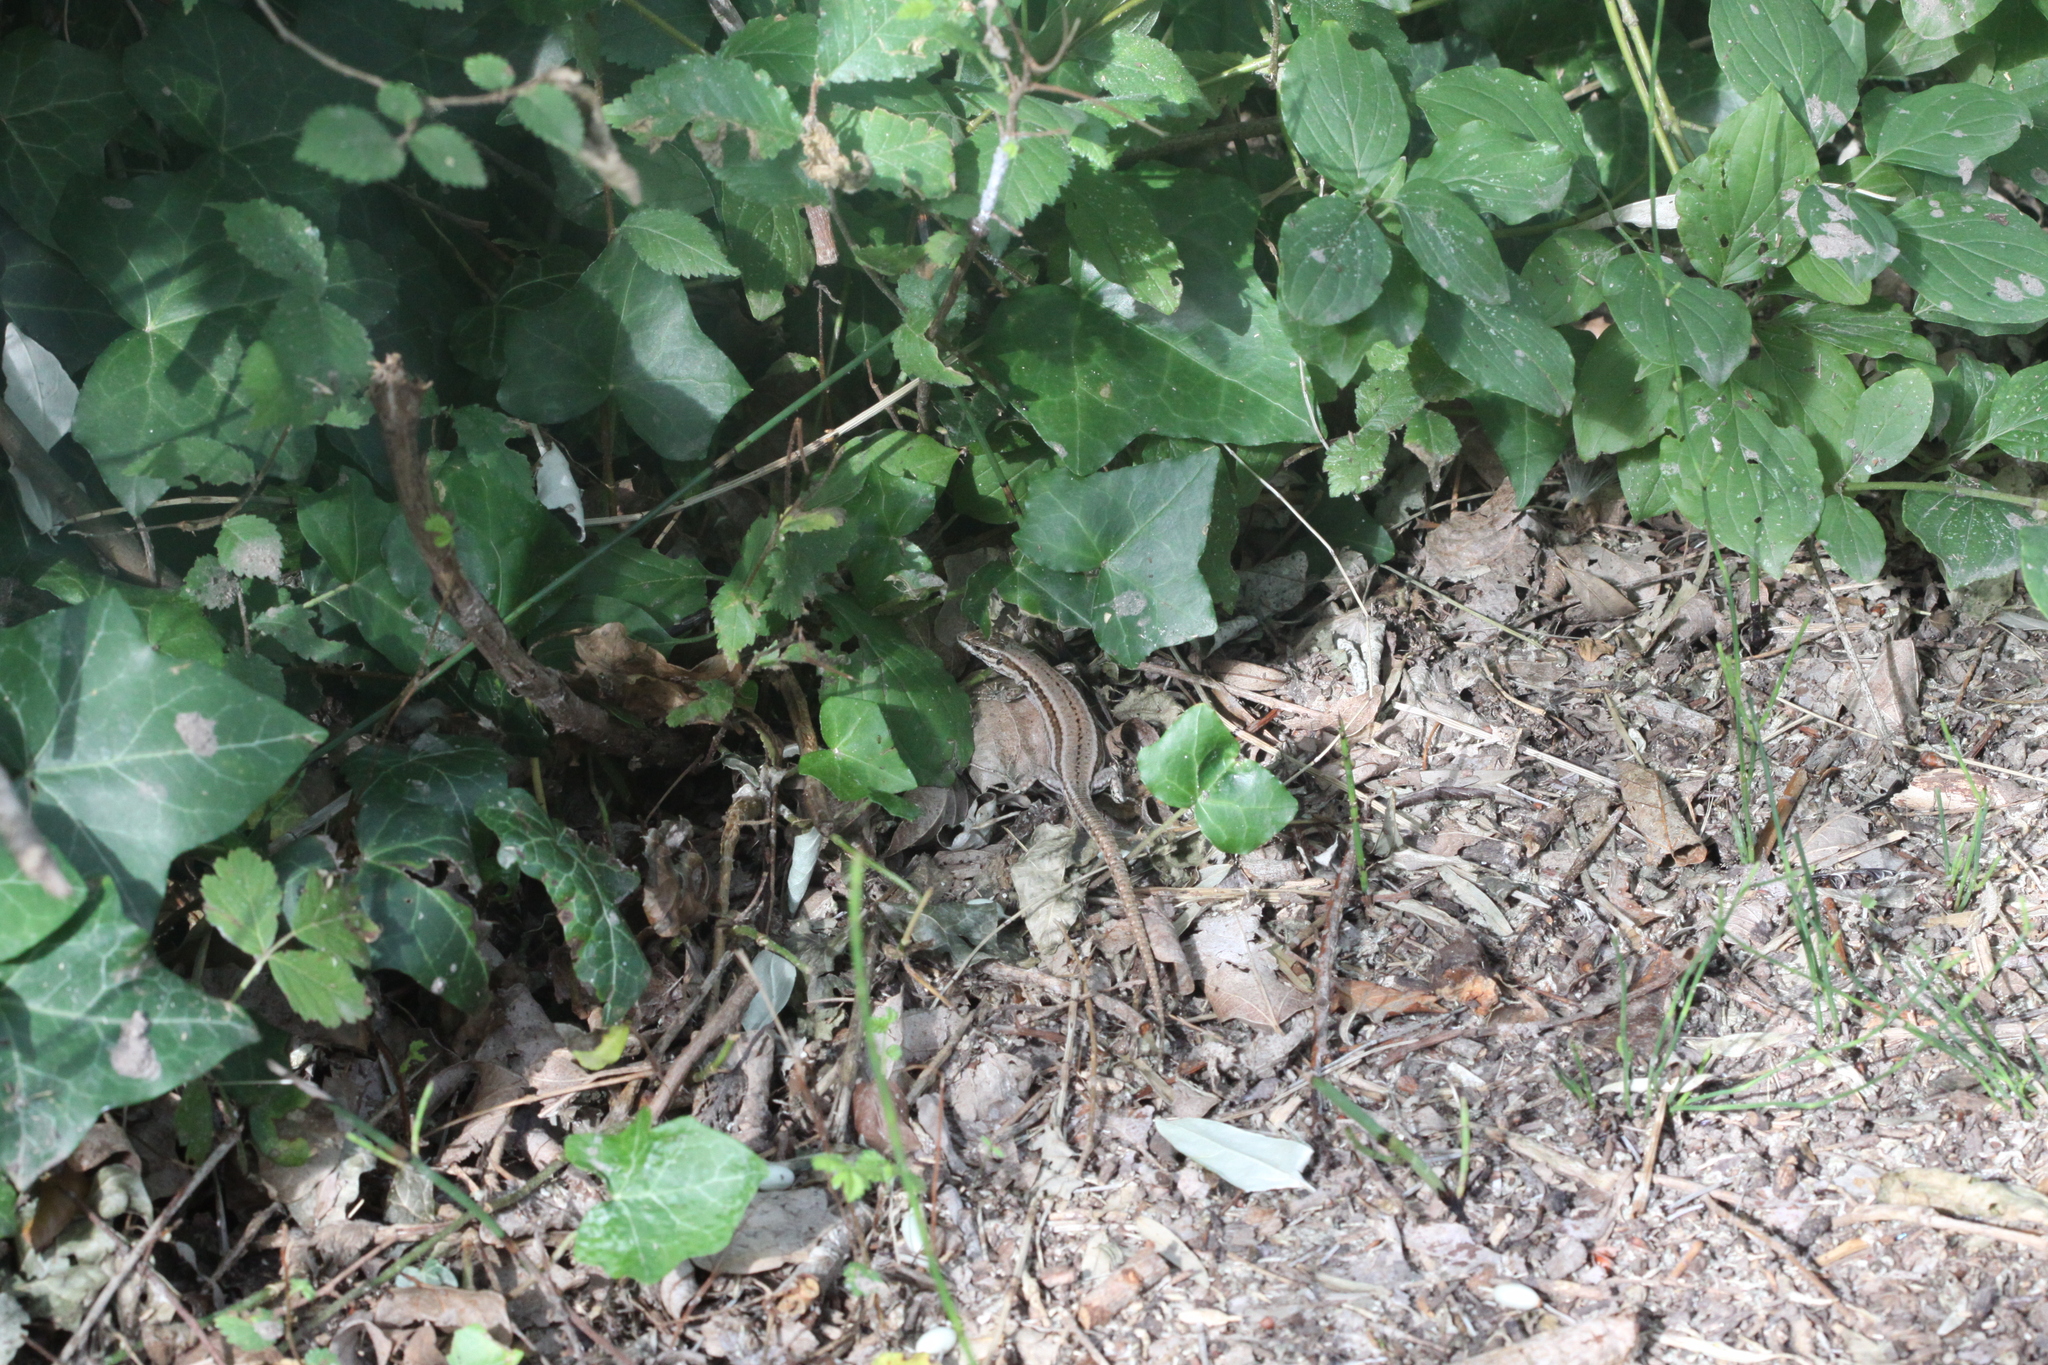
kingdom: Animalia
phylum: Chordata
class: Squamata
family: Lacertidae
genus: Podarcis
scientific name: Podarcis muralis
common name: Common wall lizard
